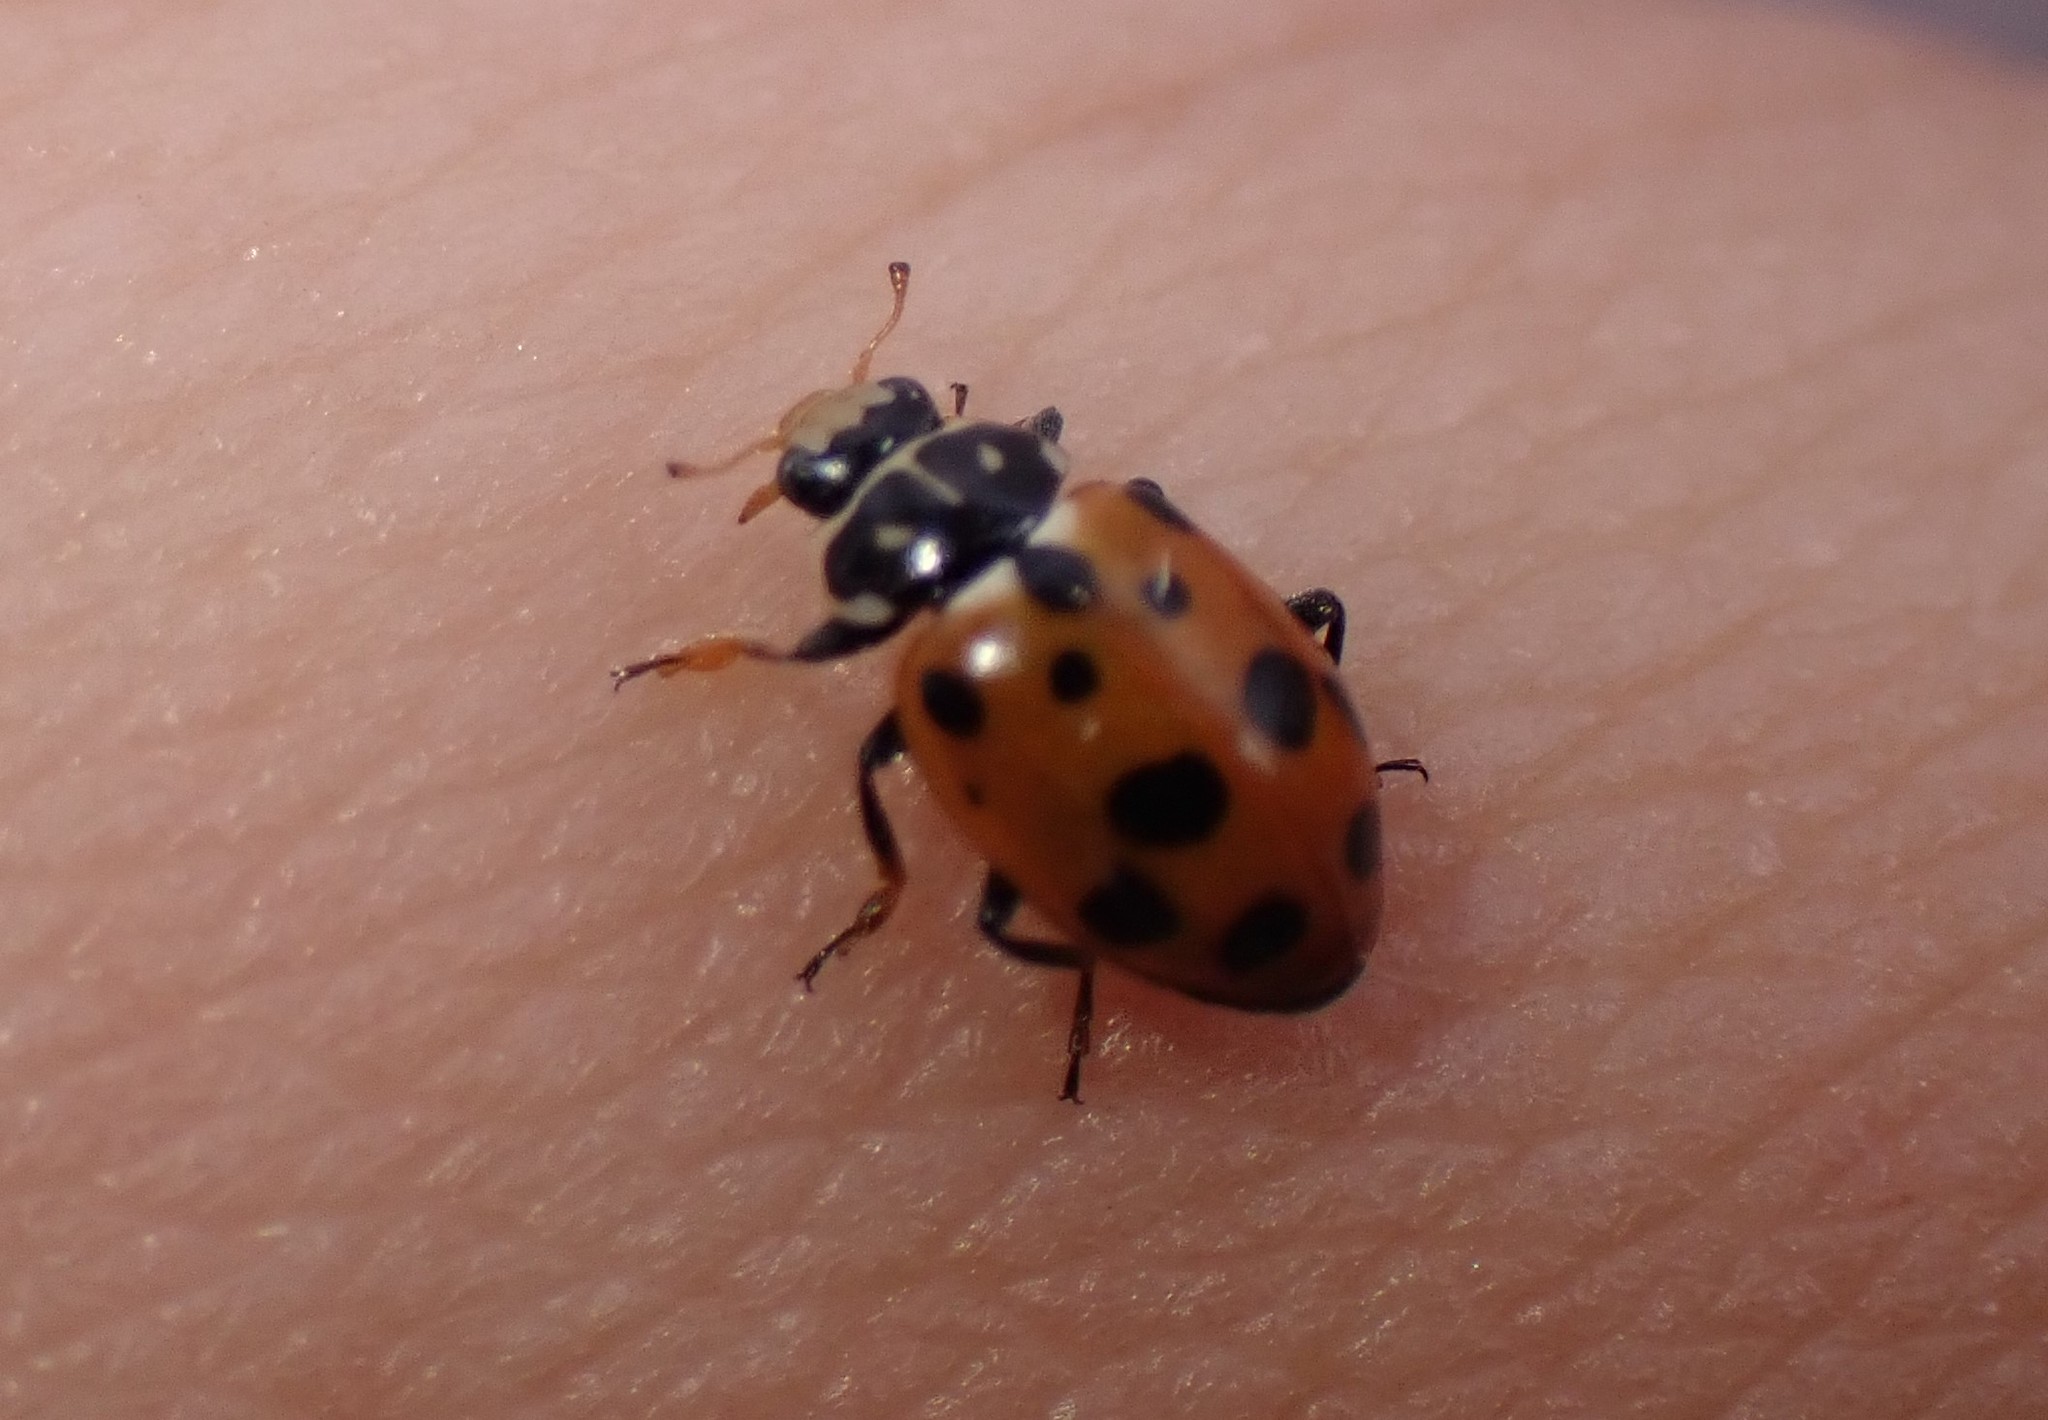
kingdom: Animalia
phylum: Arthropoda
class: Insecta
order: Coleoptera
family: Coccinellidae
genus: Hippodamia
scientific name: Hippodamia variegata
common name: Ladybird beetle
